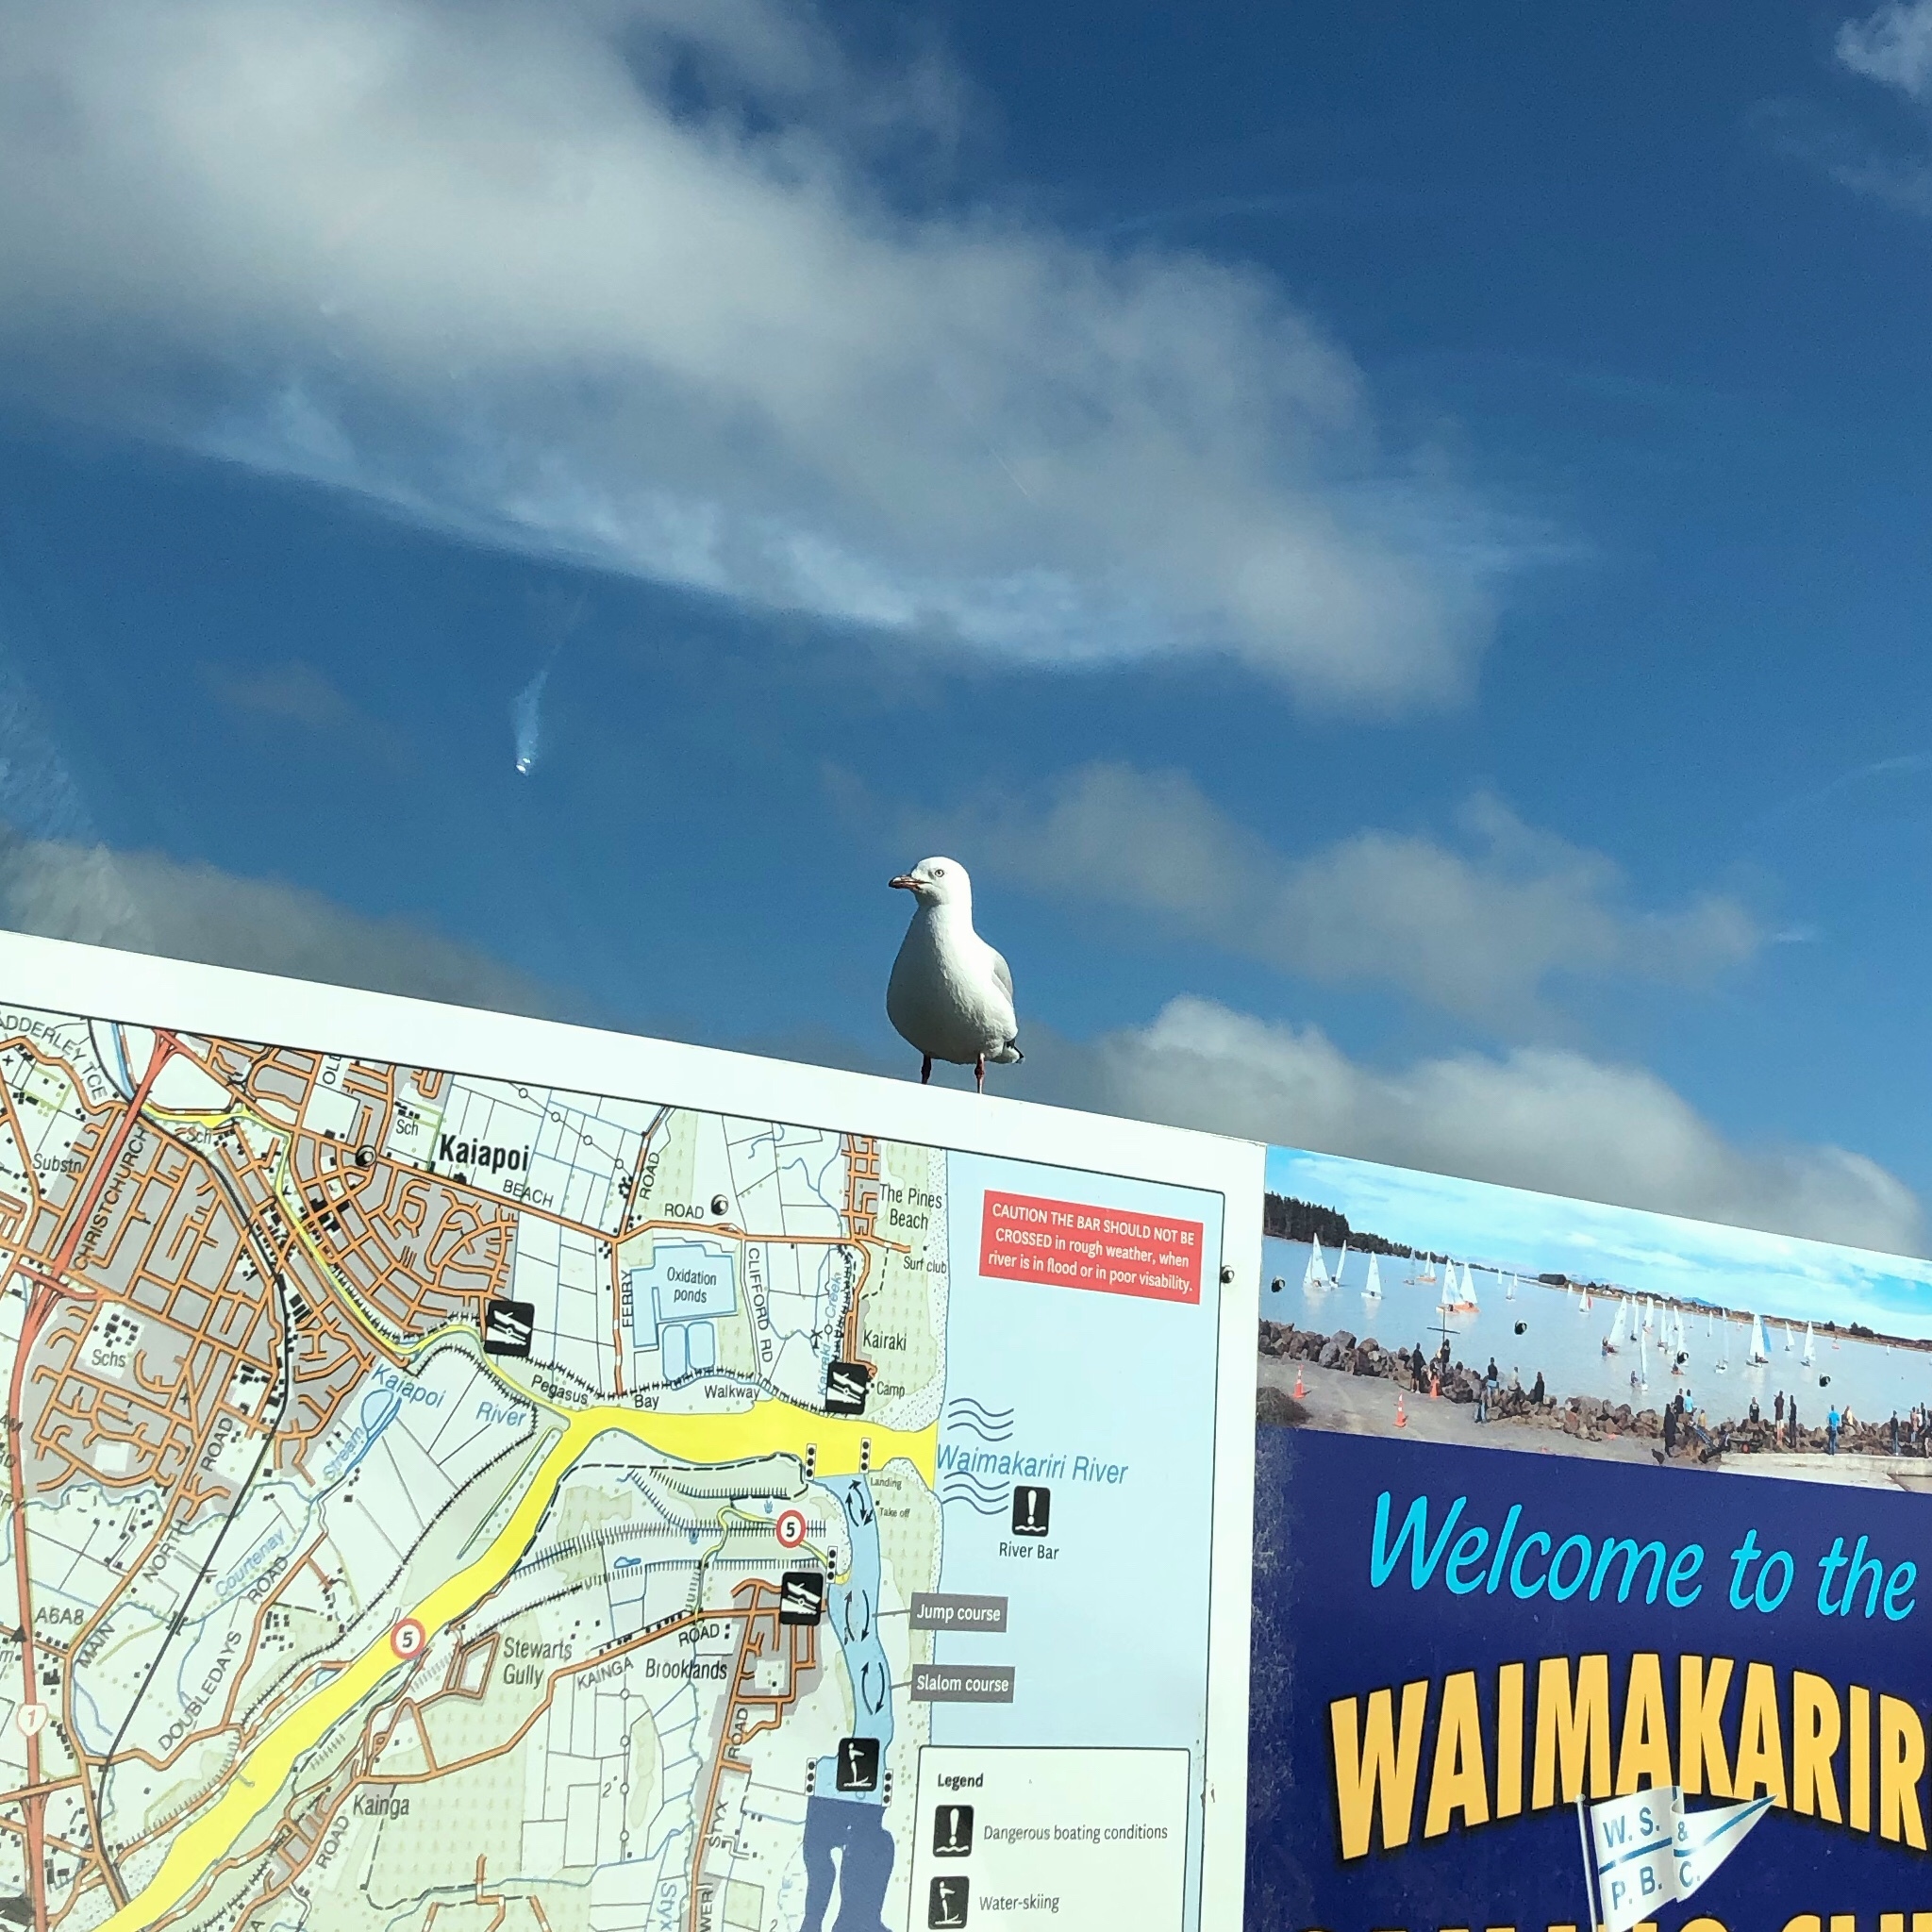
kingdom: Animalia
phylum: Chordata
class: Aves
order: Charadriiformes
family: Laridae
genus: Chroicocephalus
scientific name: Chroicocephalus novaehollandiae
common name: Silver gull
